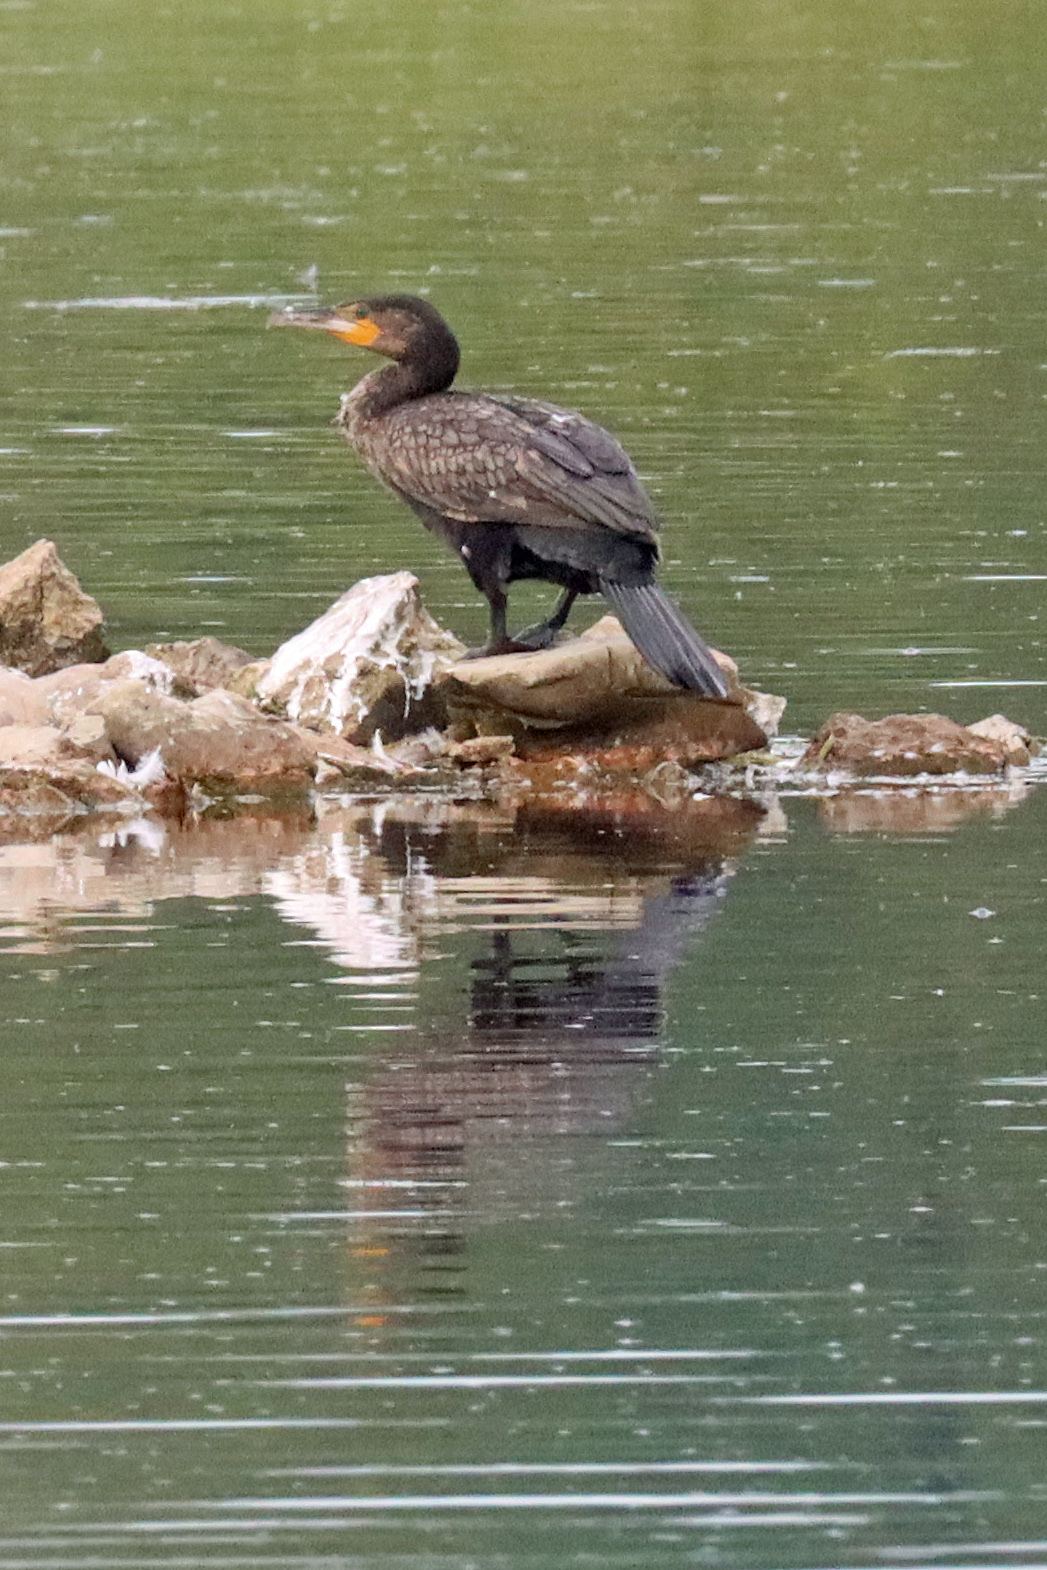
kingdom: Animalia
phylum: Chordata
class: Aves
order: Suliformes
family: Phalacrocoracidae
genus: Phalacrocorax
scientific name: Phalacrocorax carbo
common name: Great cormorant
